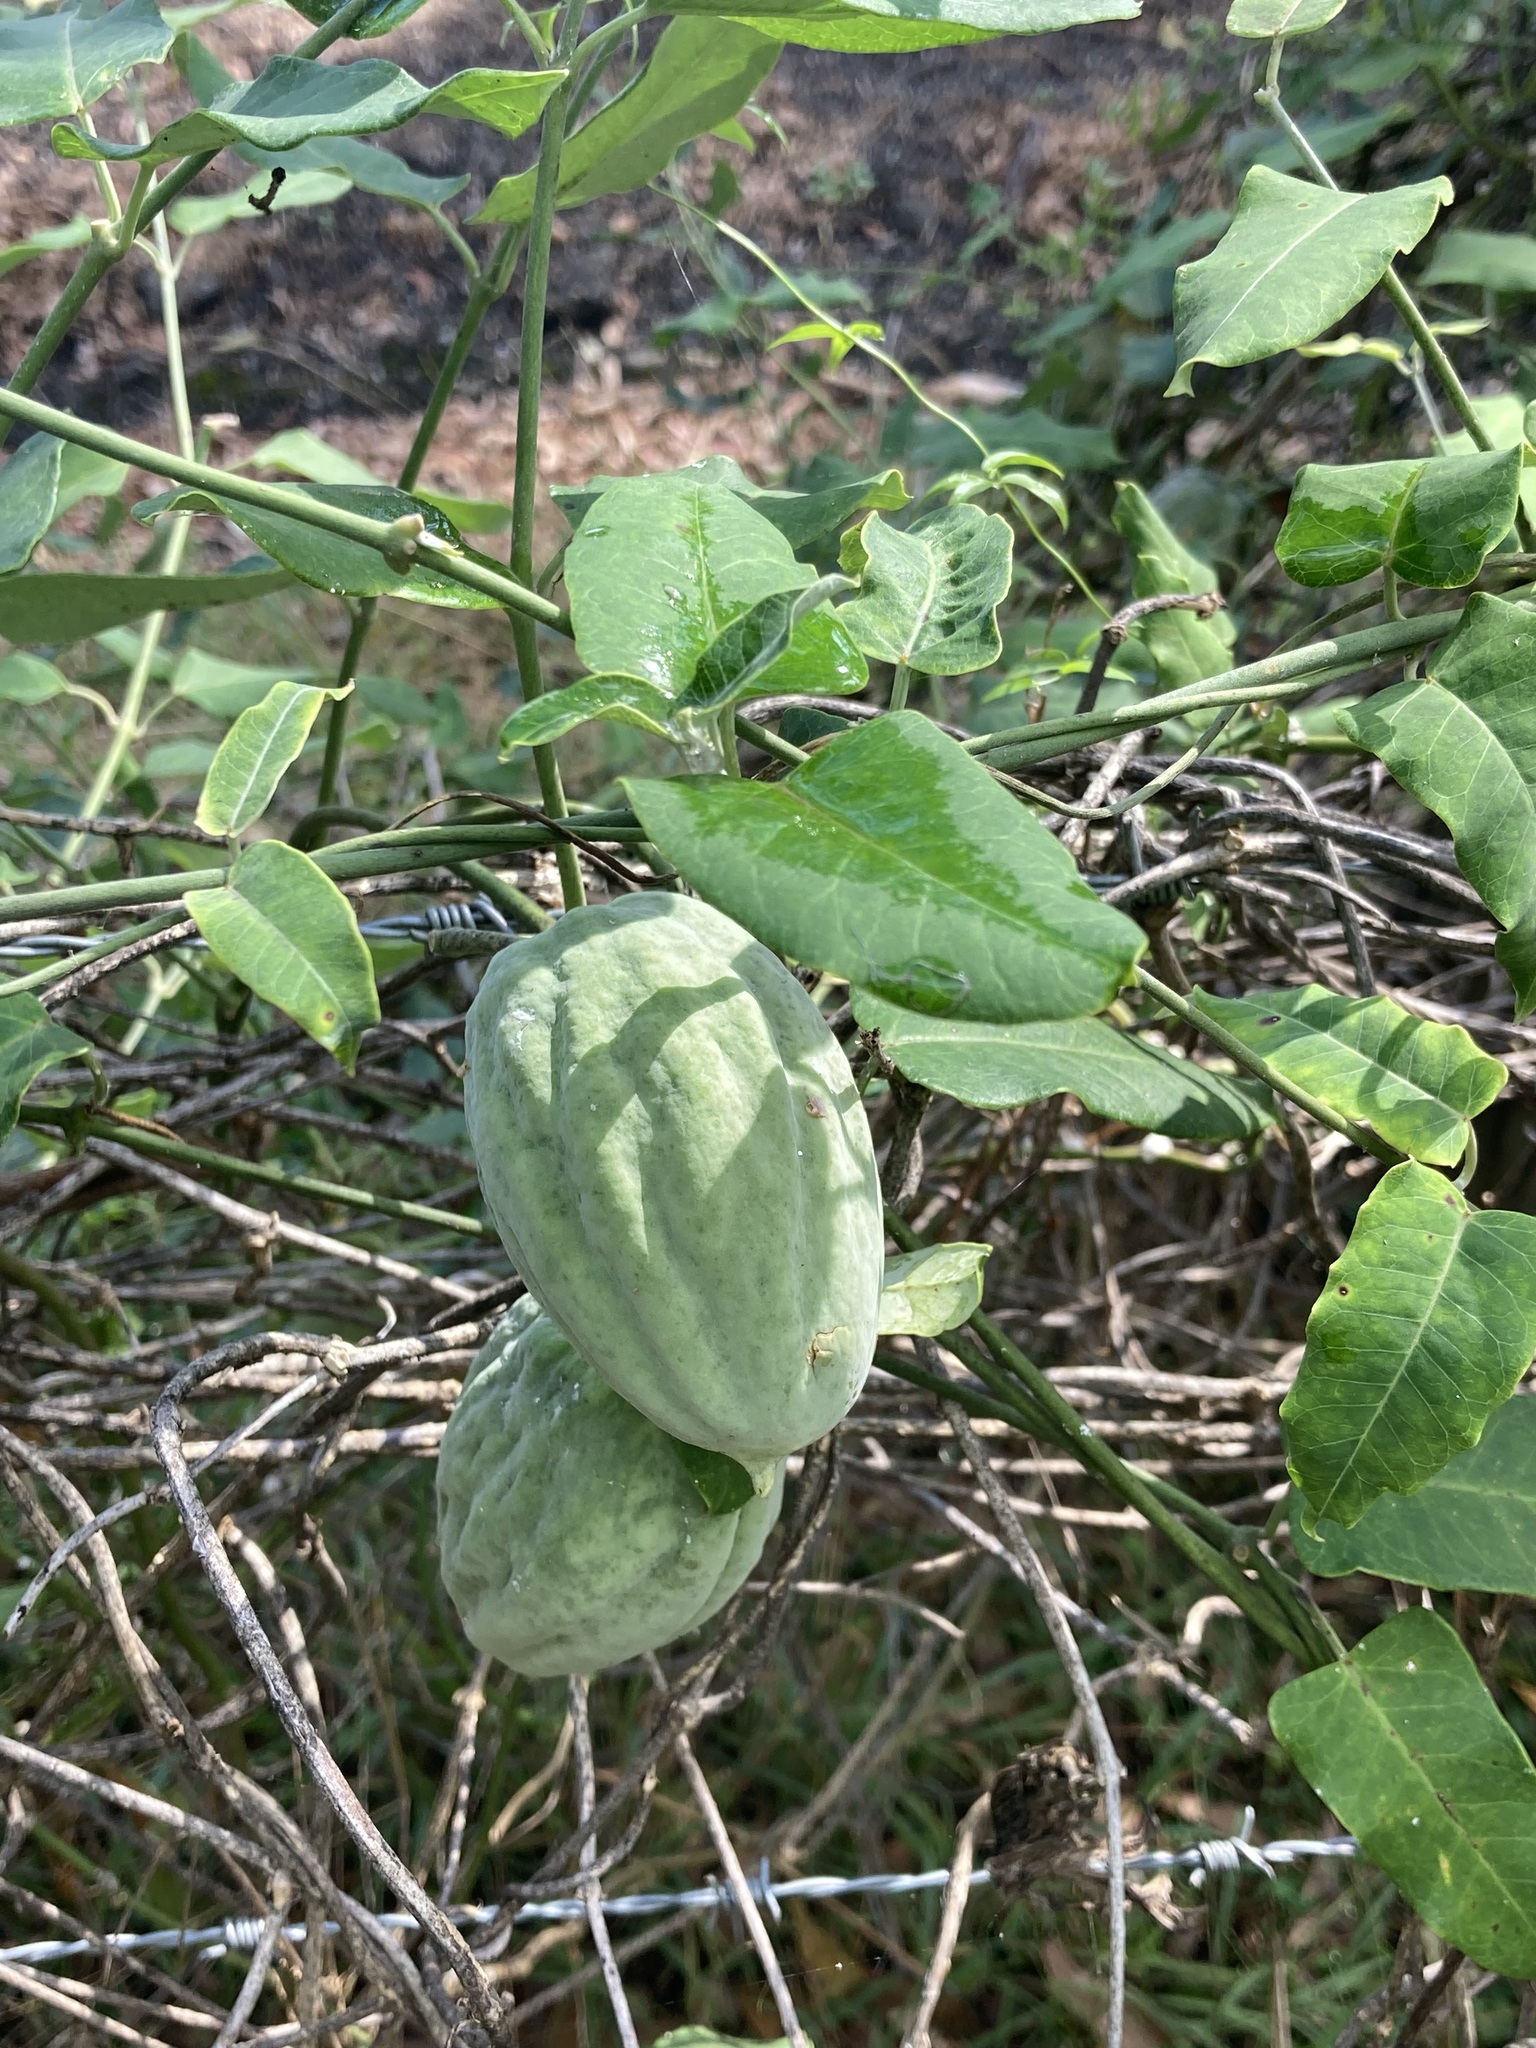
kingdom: Plantae
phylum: Tracheophyta
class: Magnoliopsida
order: Gentianales
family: Apocynaceae
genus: Araujia
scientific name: Araujia sericifera
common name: White bladderflower
